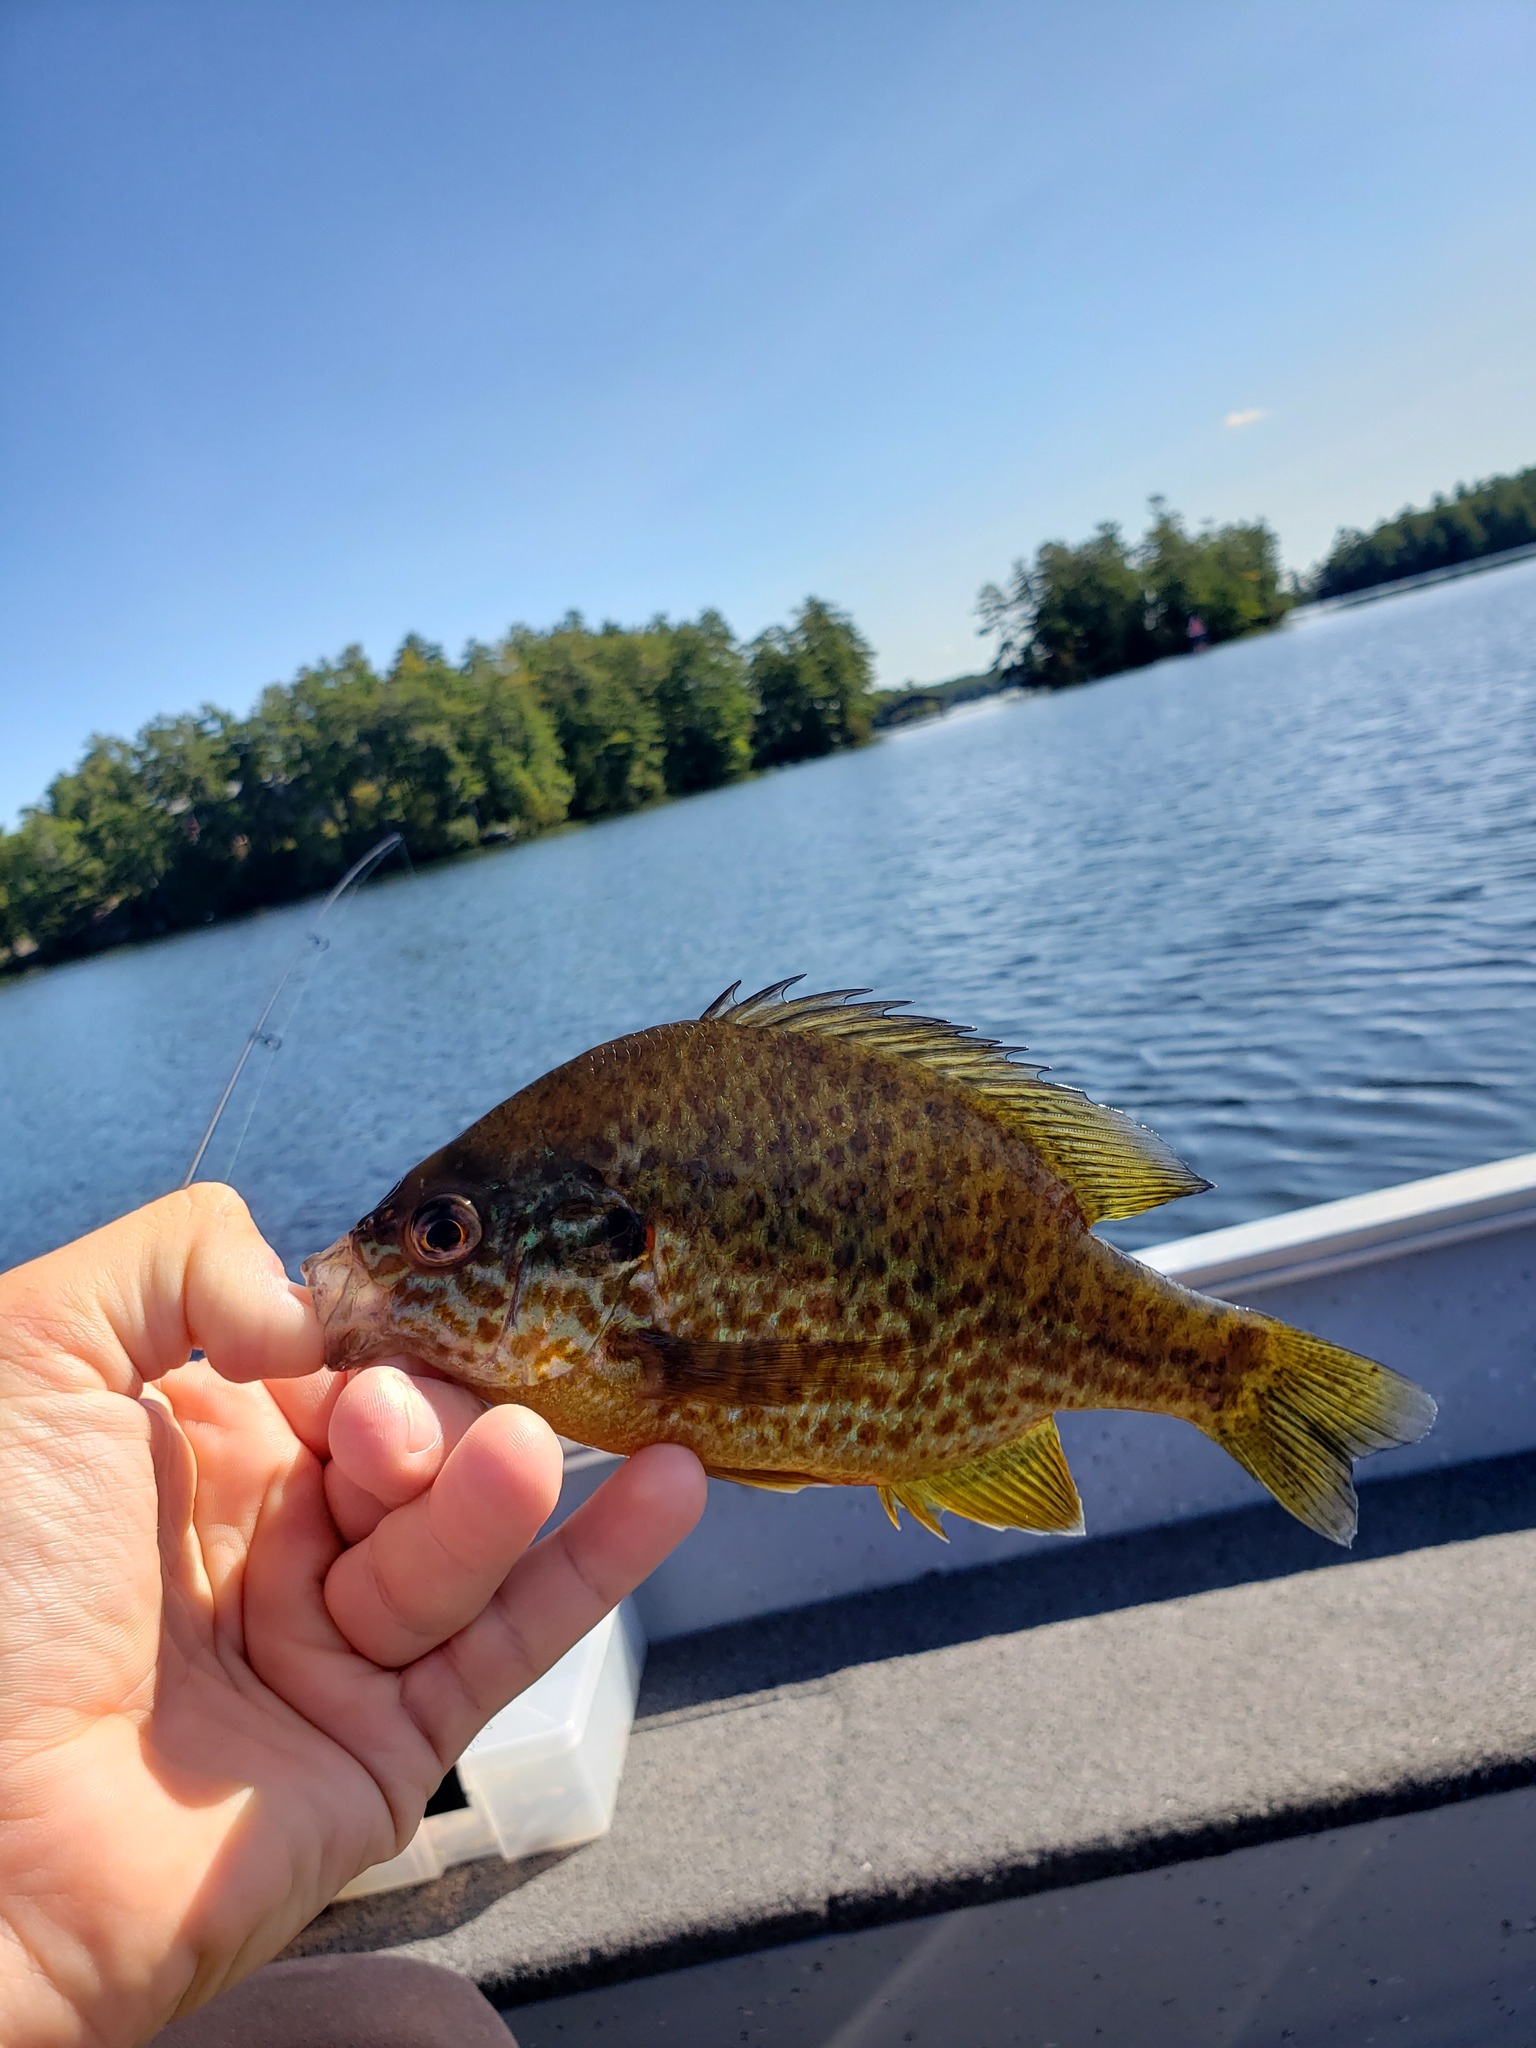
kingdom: Animalia
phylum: Chordata
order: Perciformes
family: Centrarchidae
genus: Lepomis
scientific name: Lepomis gibbosus
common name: Pumpkinseed
